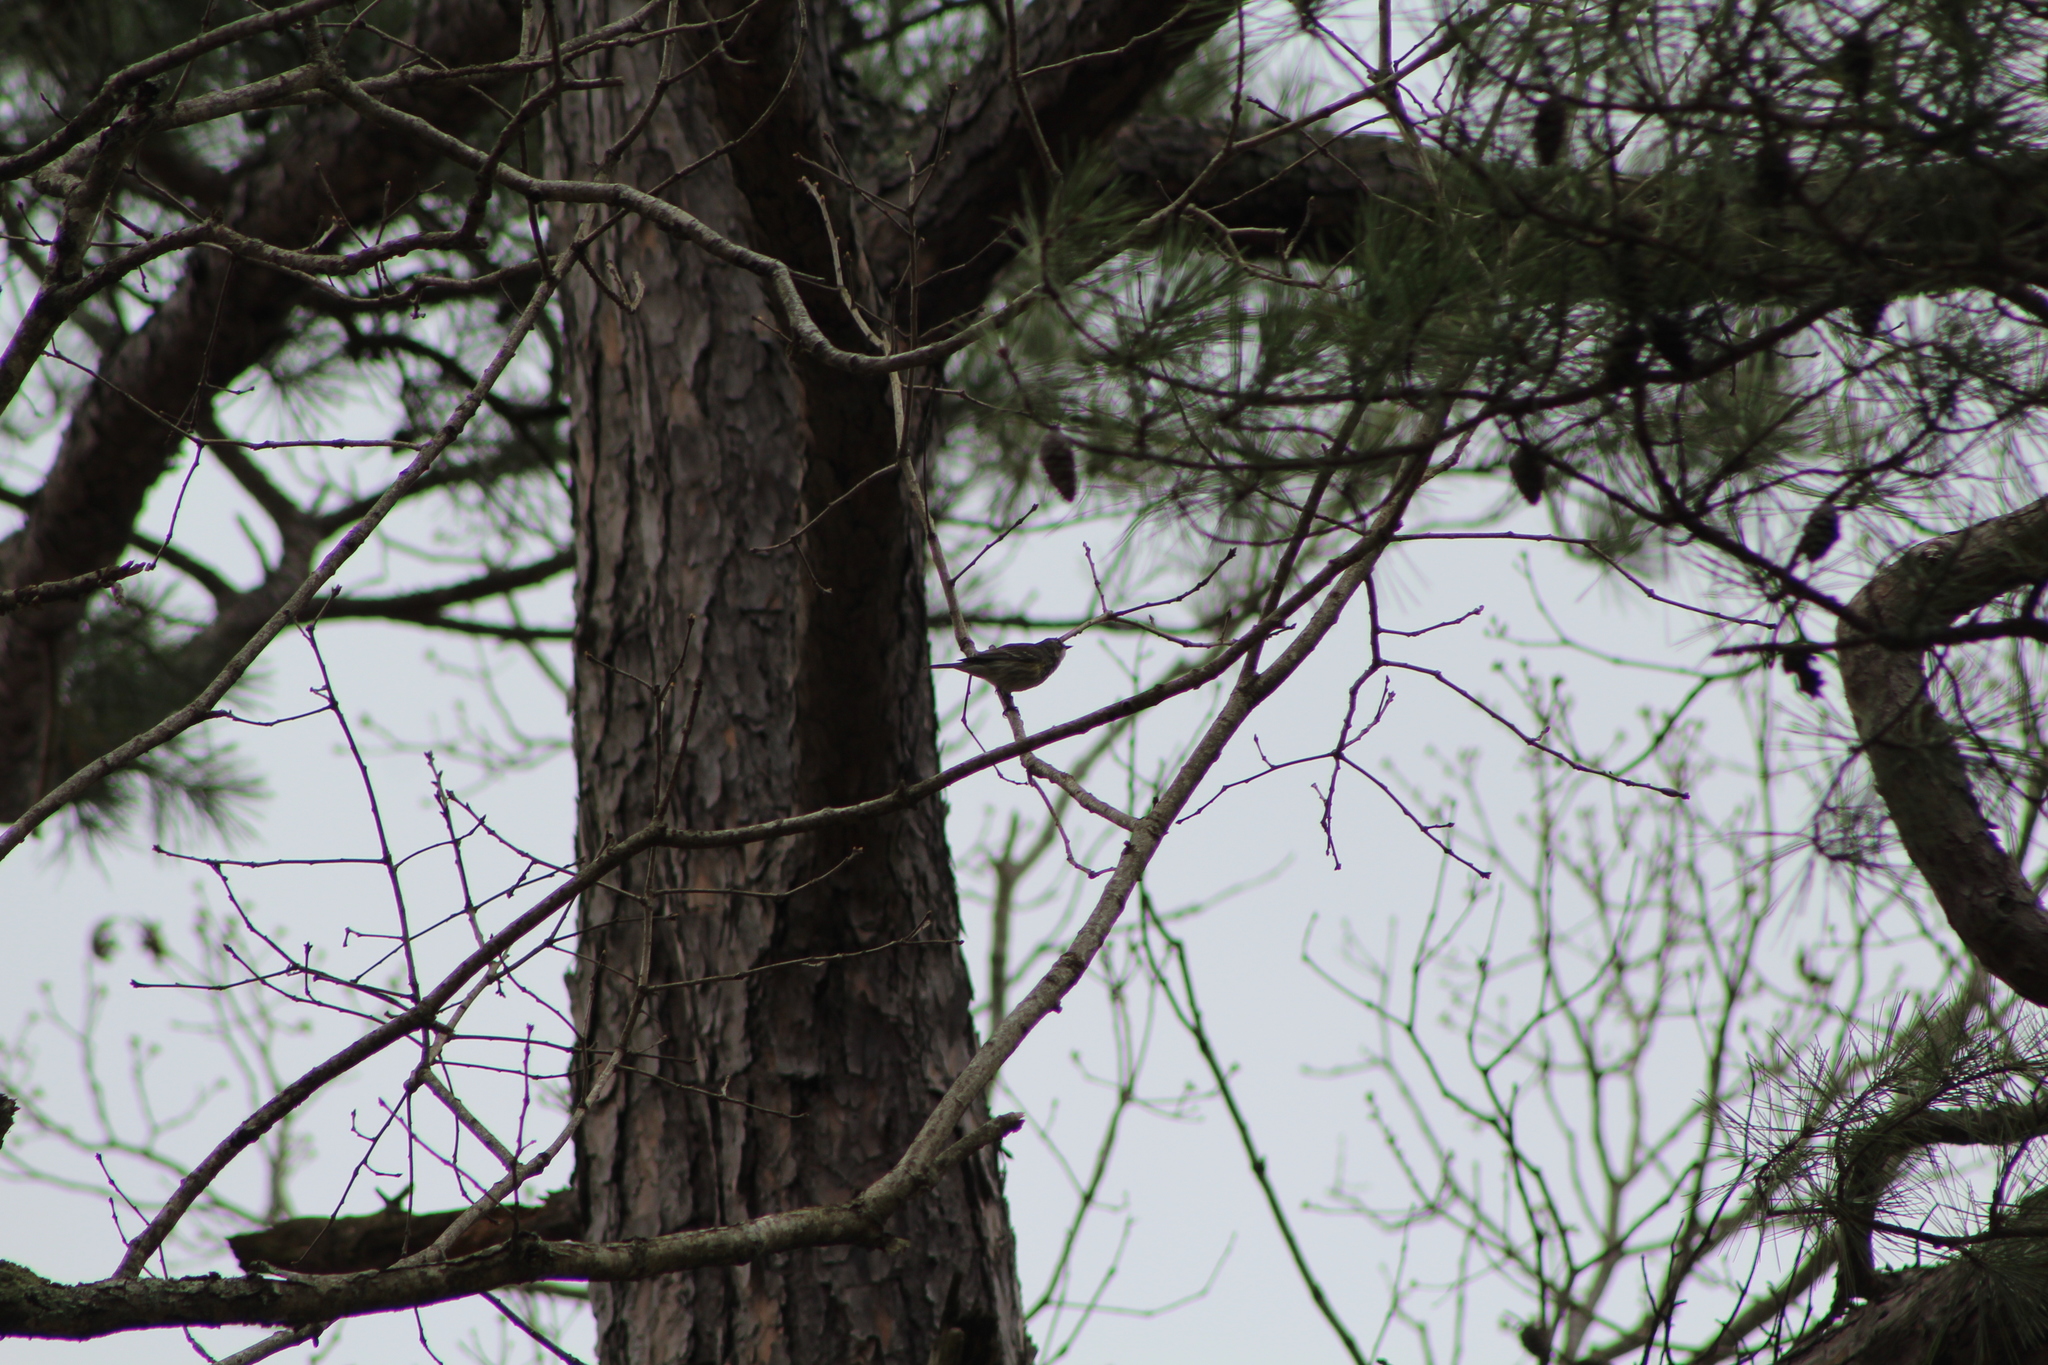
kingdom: Animalia
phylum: Chordata
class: Aves
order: Passeriformes
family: Parulidae
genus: Setophaga
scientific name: Setophaga coronata
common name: Myrtle warbler
